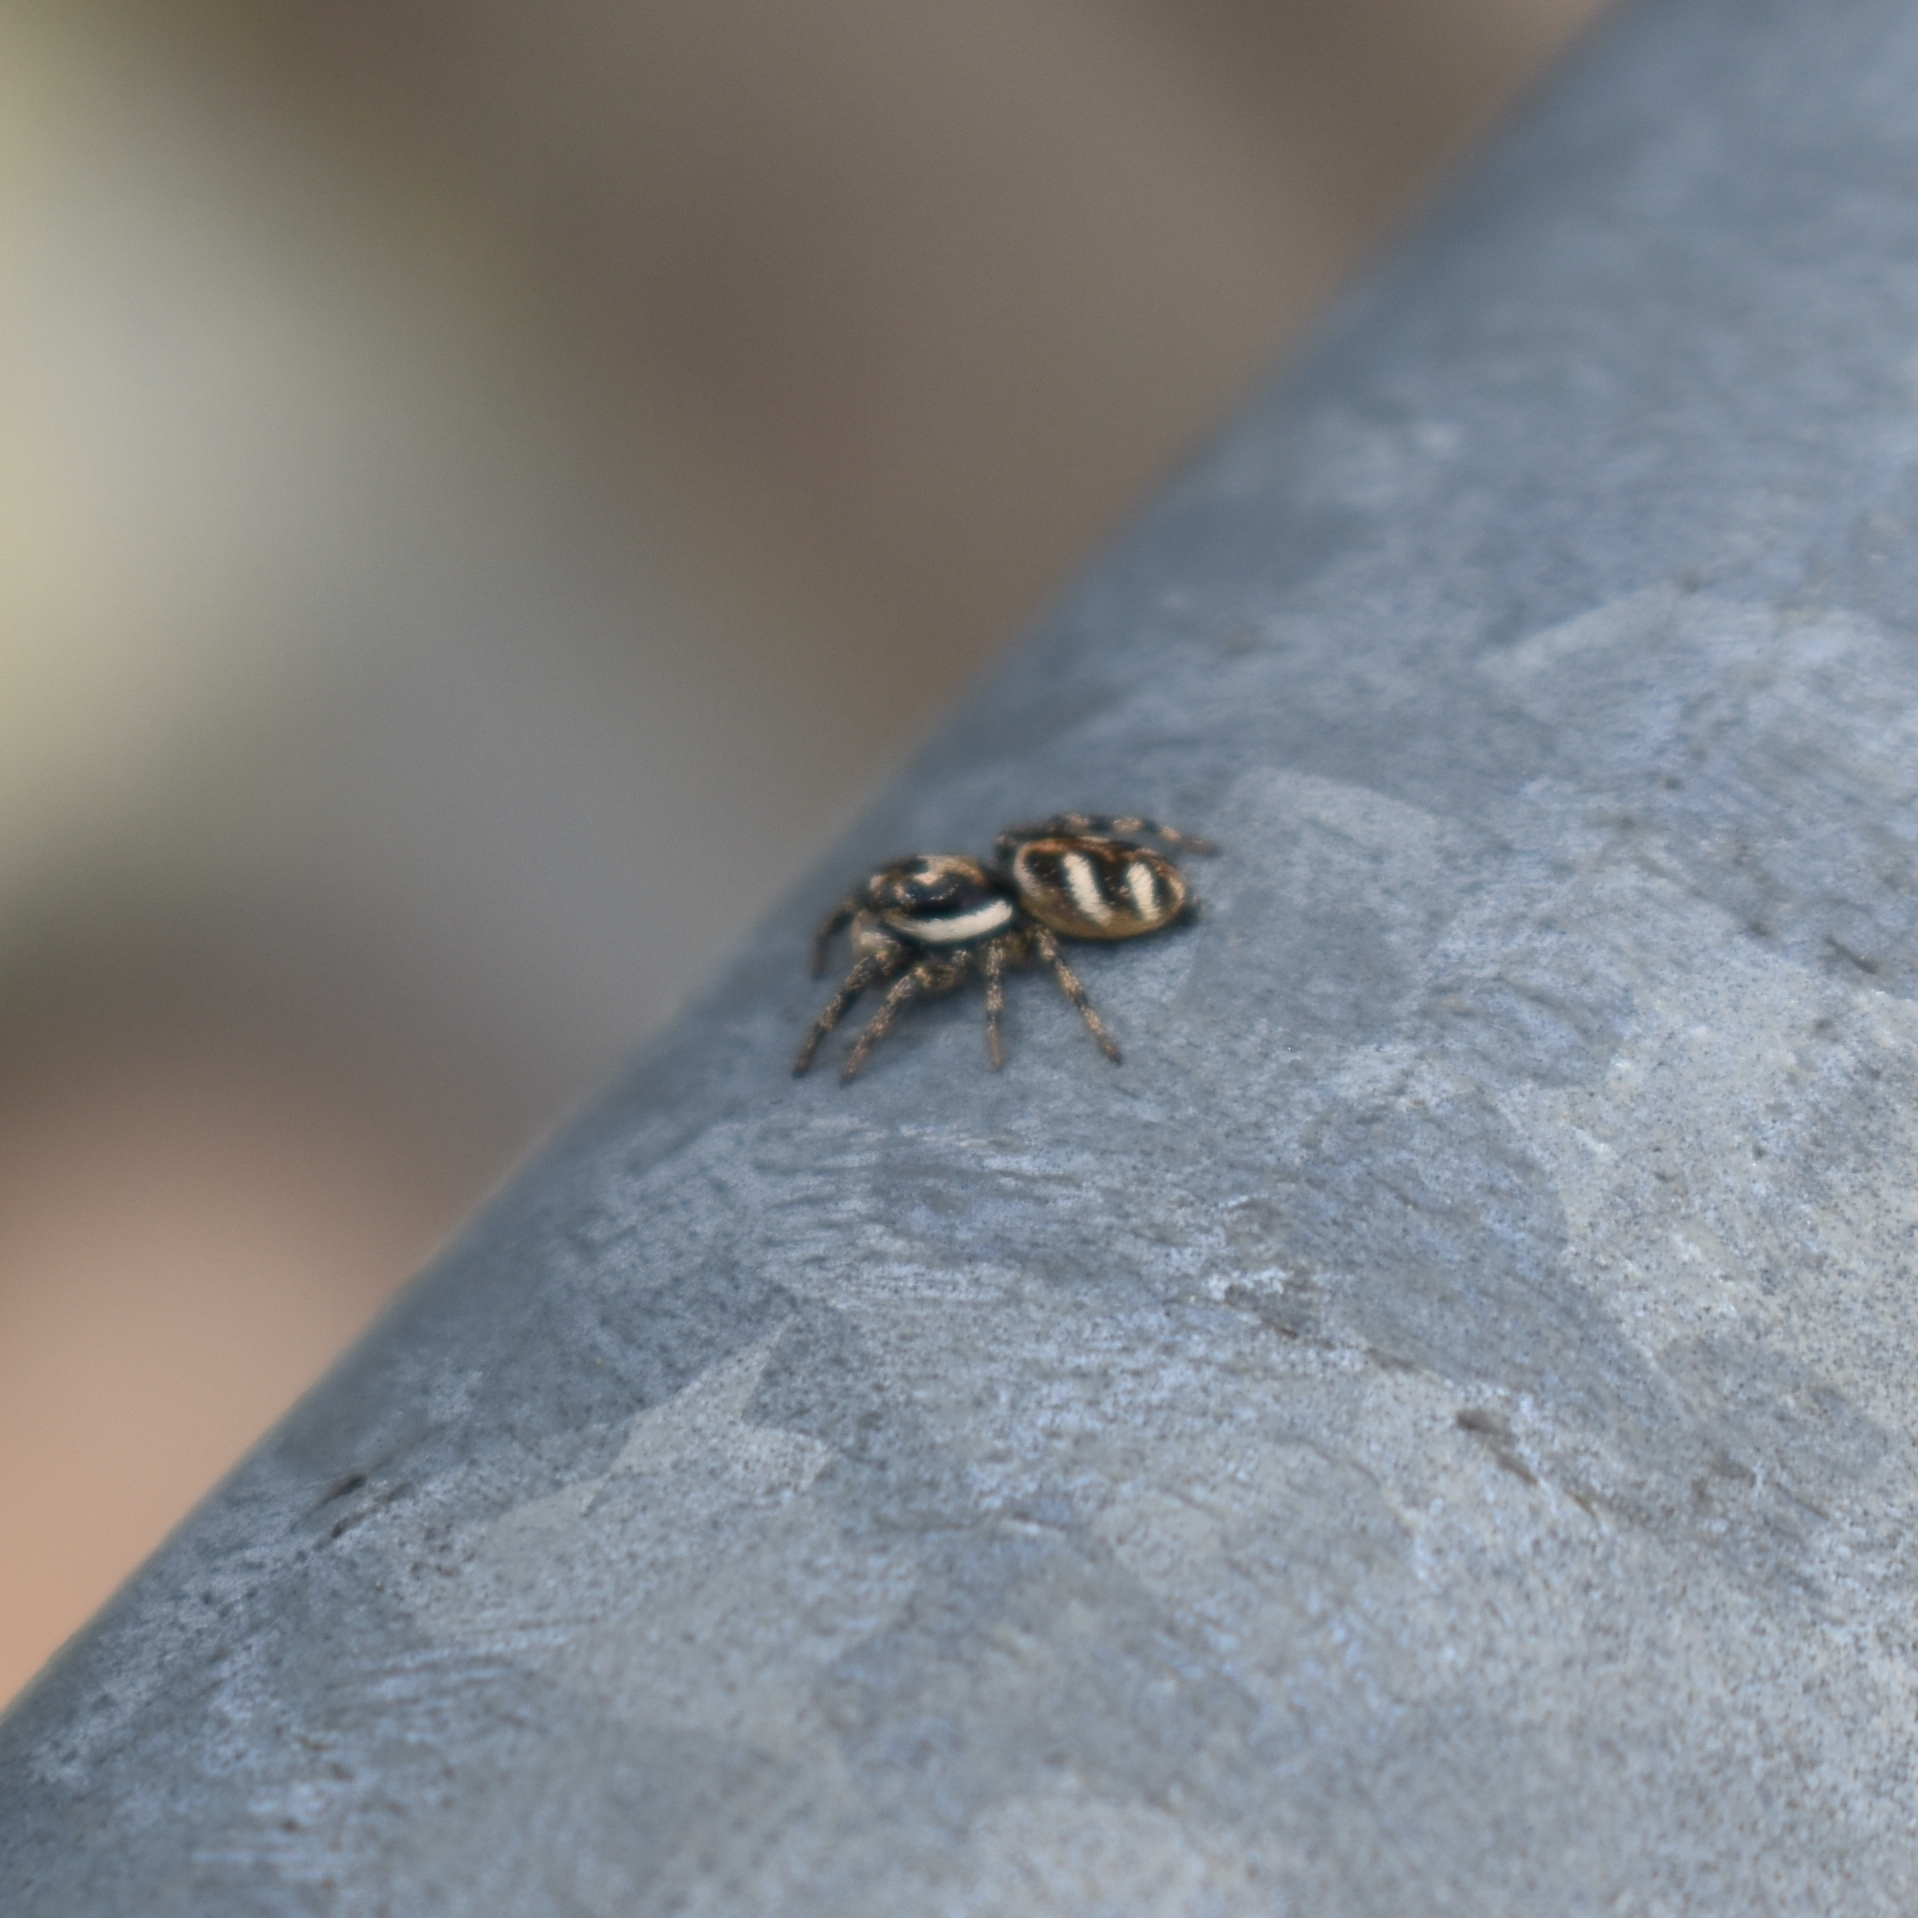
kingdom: Animalia
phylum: Arthropoda
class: Arachnida
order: Araneae
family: Salticidae
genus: Salticus
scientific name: Salticus scenicus
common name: Zebra jumper
